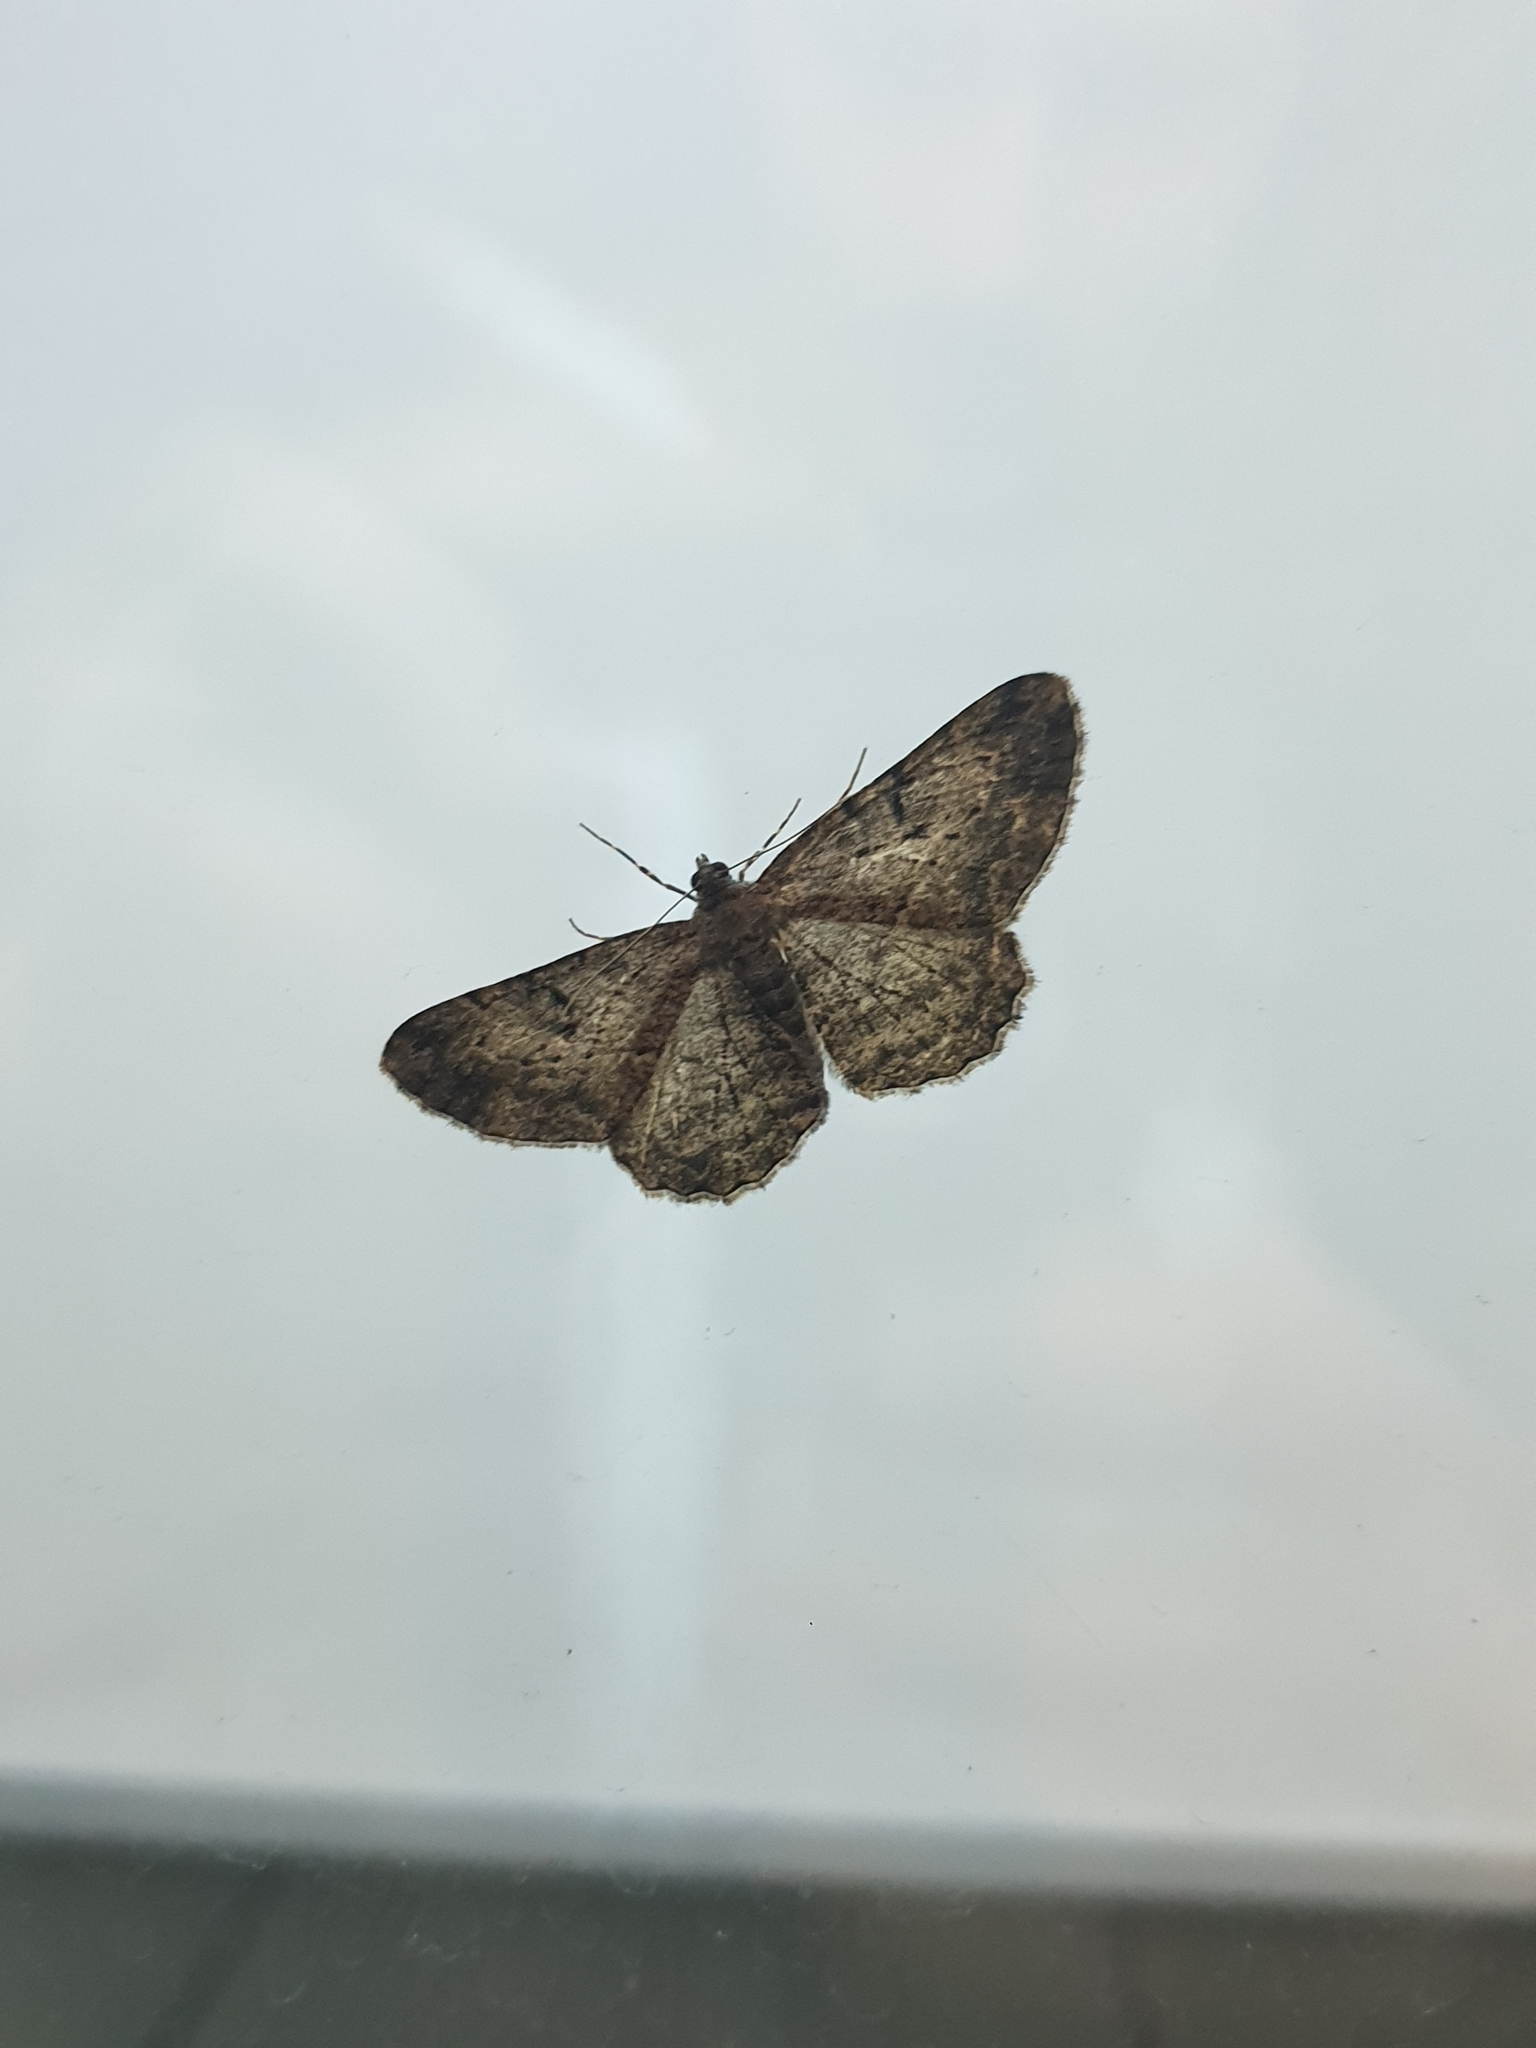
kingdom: Animalia
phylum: Arthropoda
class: Insecta
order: Lepidoptera
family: Geometridae
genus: Peribatodes
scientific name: Peribatodes rhomboidaria
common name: Willow beauty
